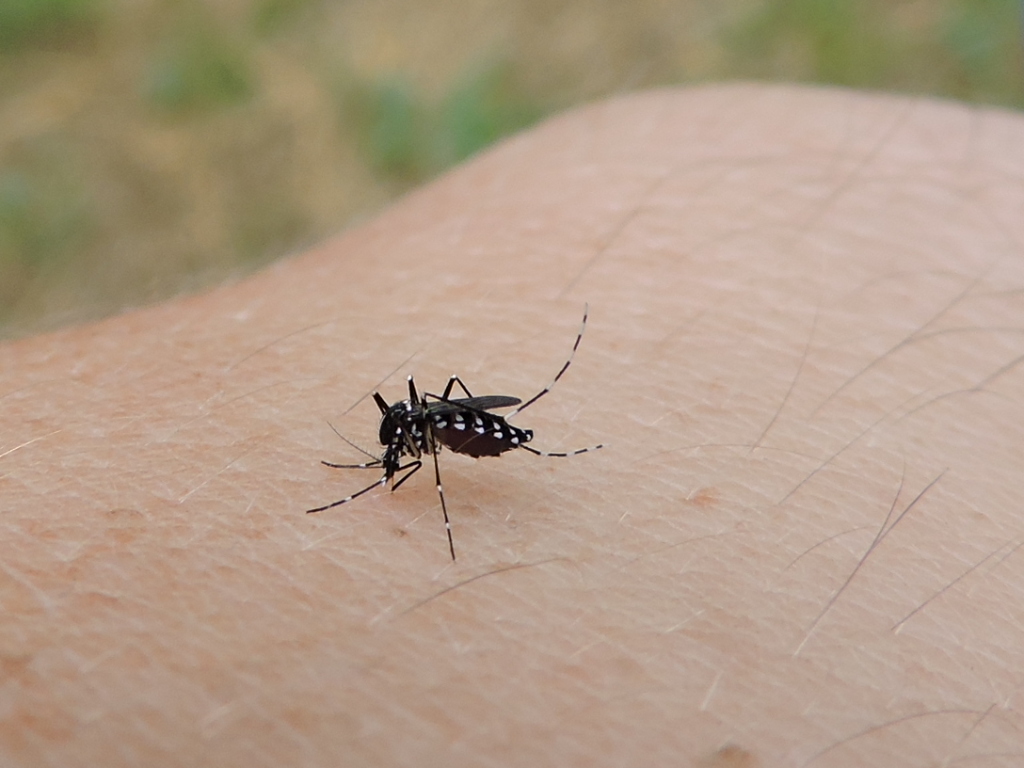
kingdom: Animalia
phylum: Arthropoda
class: Insecta
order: Diptera
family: Culicidae
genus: Aedes
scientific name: Aedes albopictus
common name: Tiger mosquito
